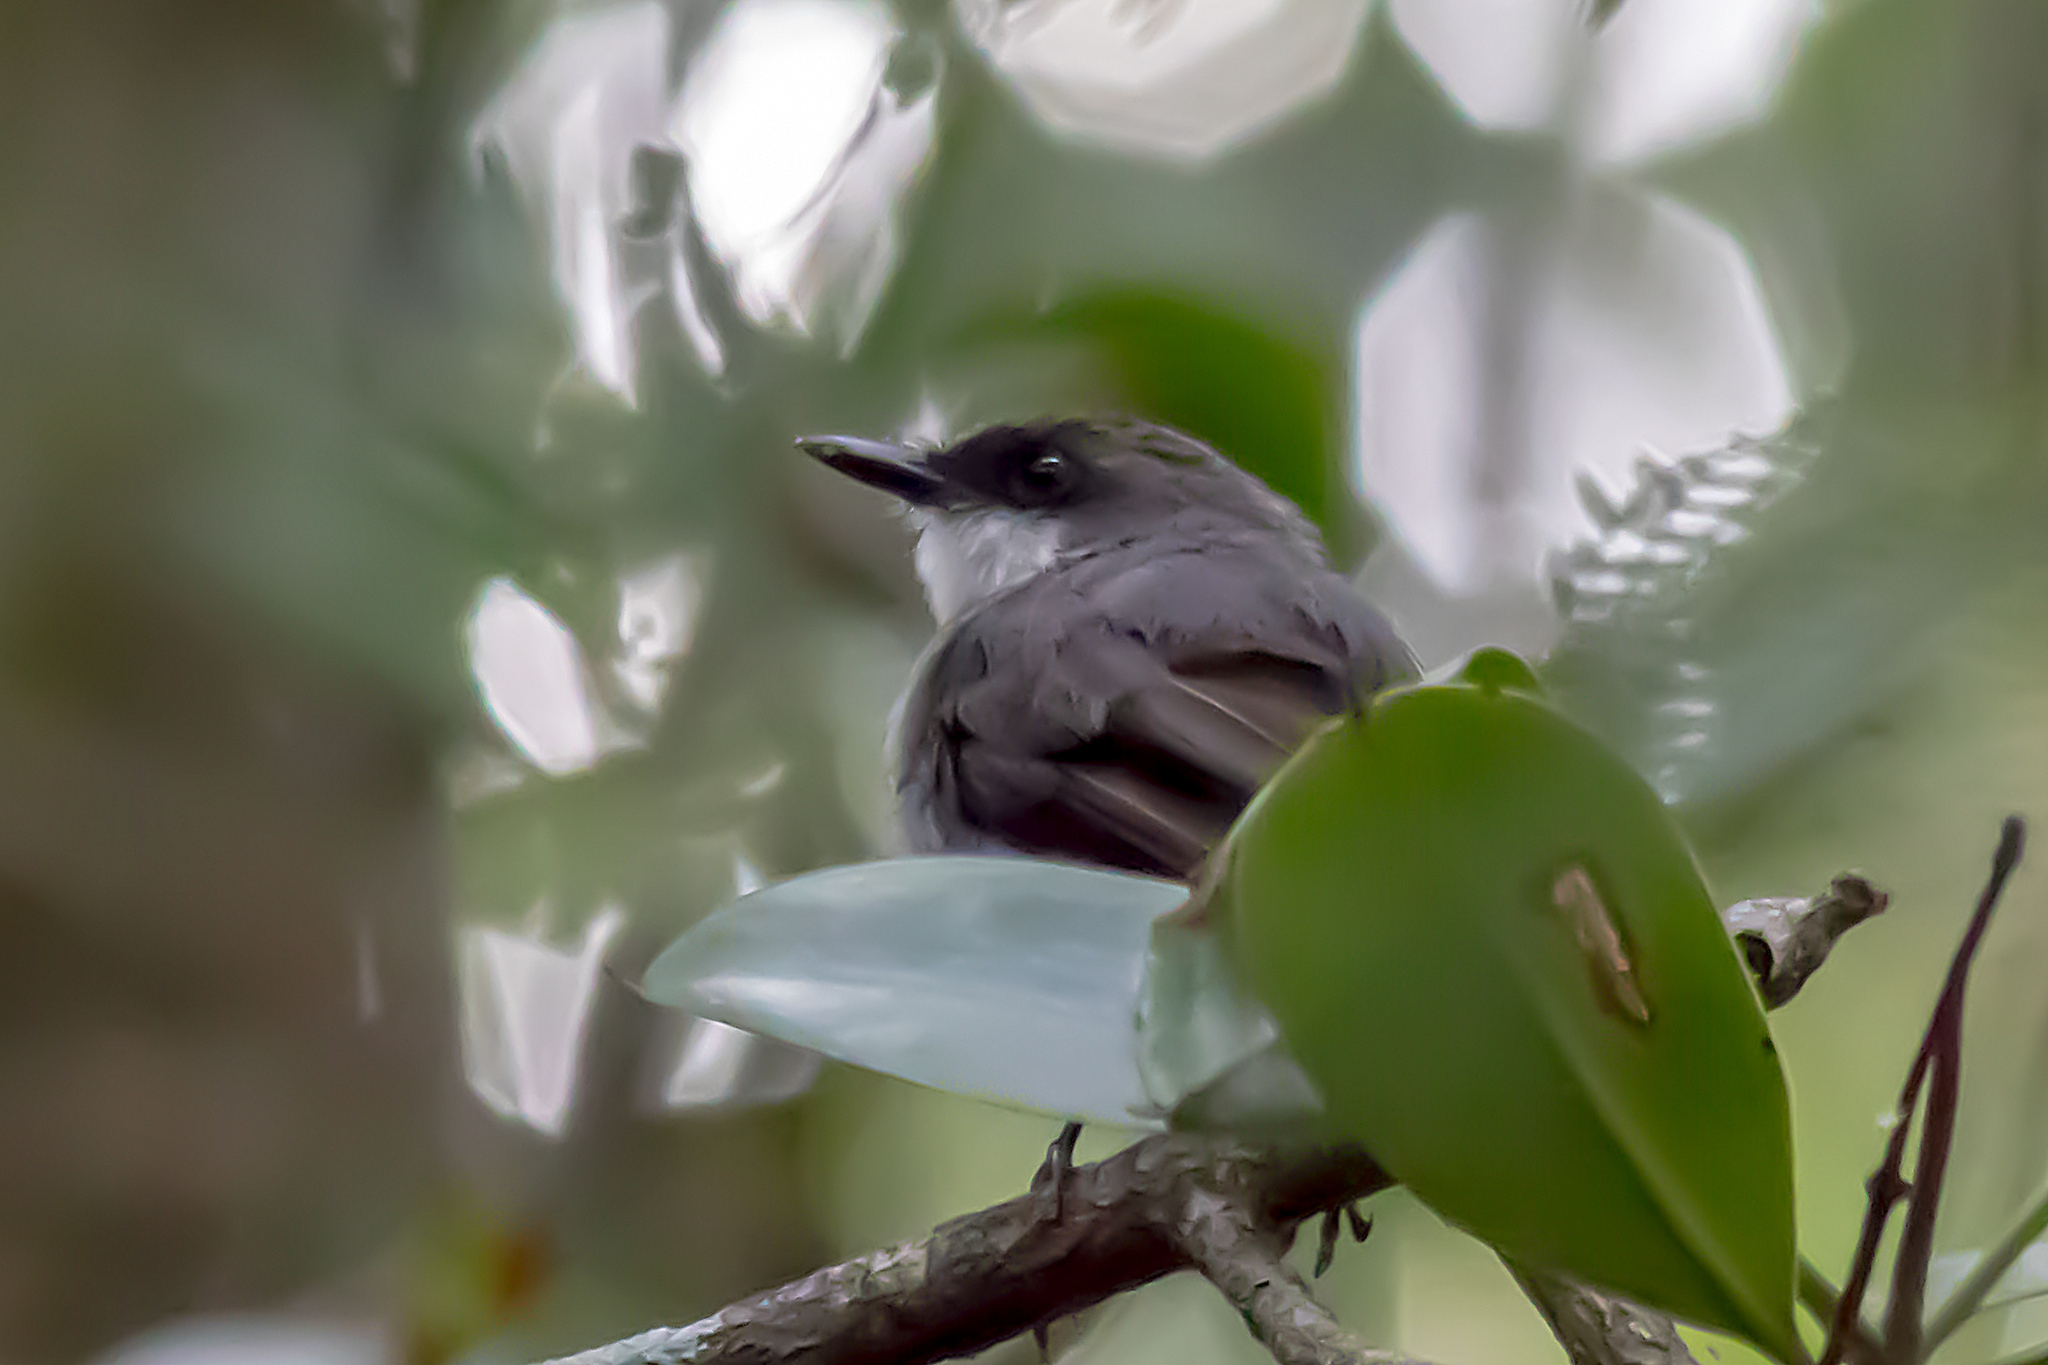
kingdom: Animalia
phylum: Chordata
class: Aves
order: Passeriformes
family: Petroicidae
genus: Melanodryas
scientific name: Melanodryas
